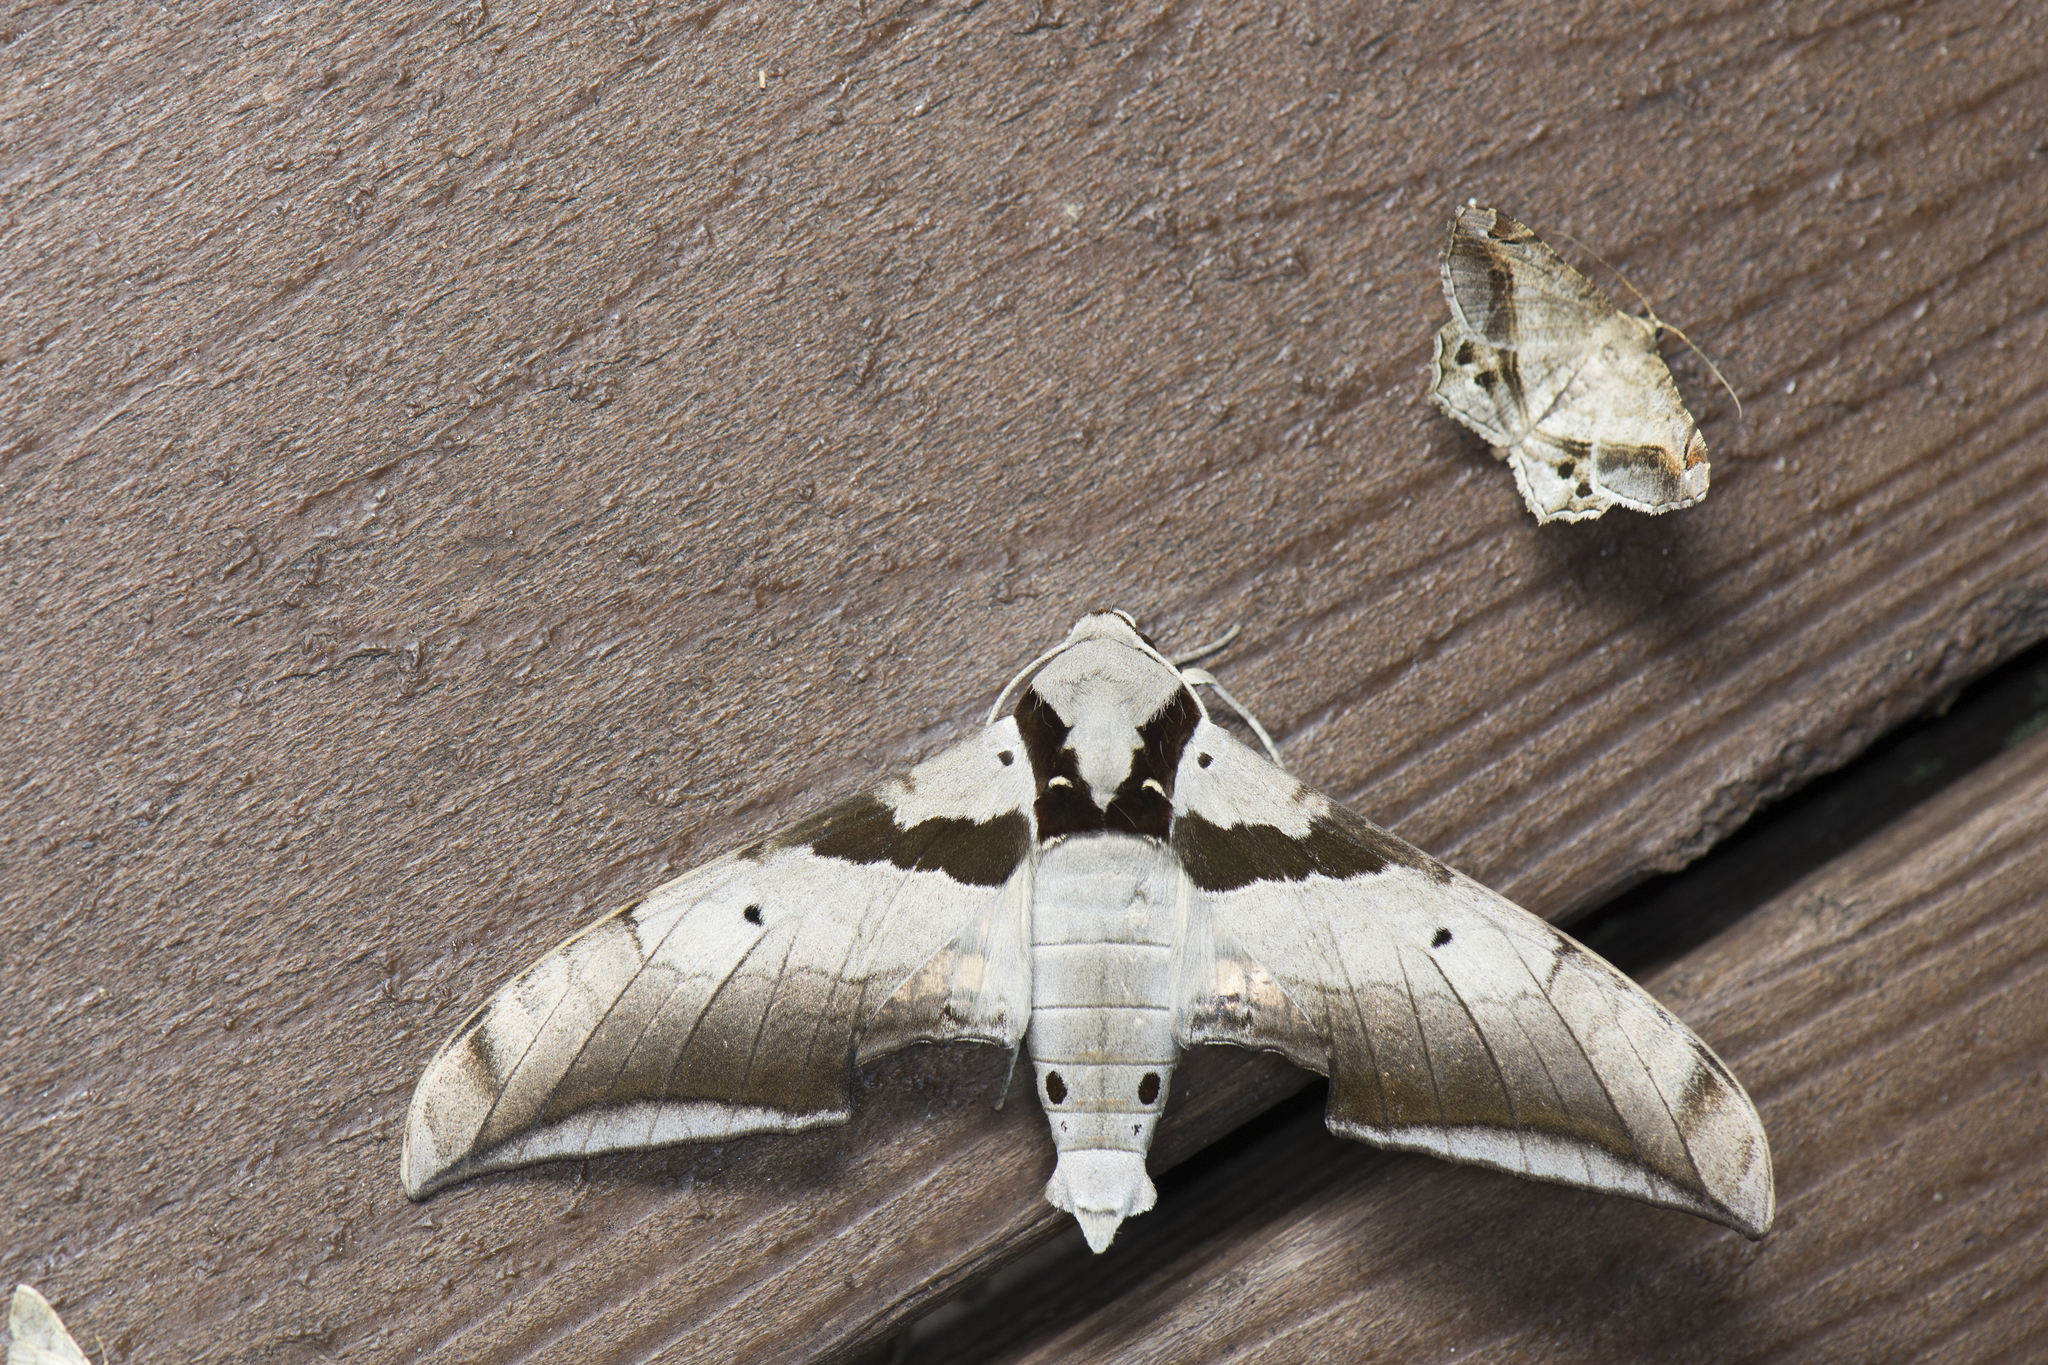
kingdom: Animalia
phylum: Arthropoda
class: Insecta
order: Lepidoptera
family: Sphingidae
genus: Ambulyx
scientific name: Ambulyx japonica
